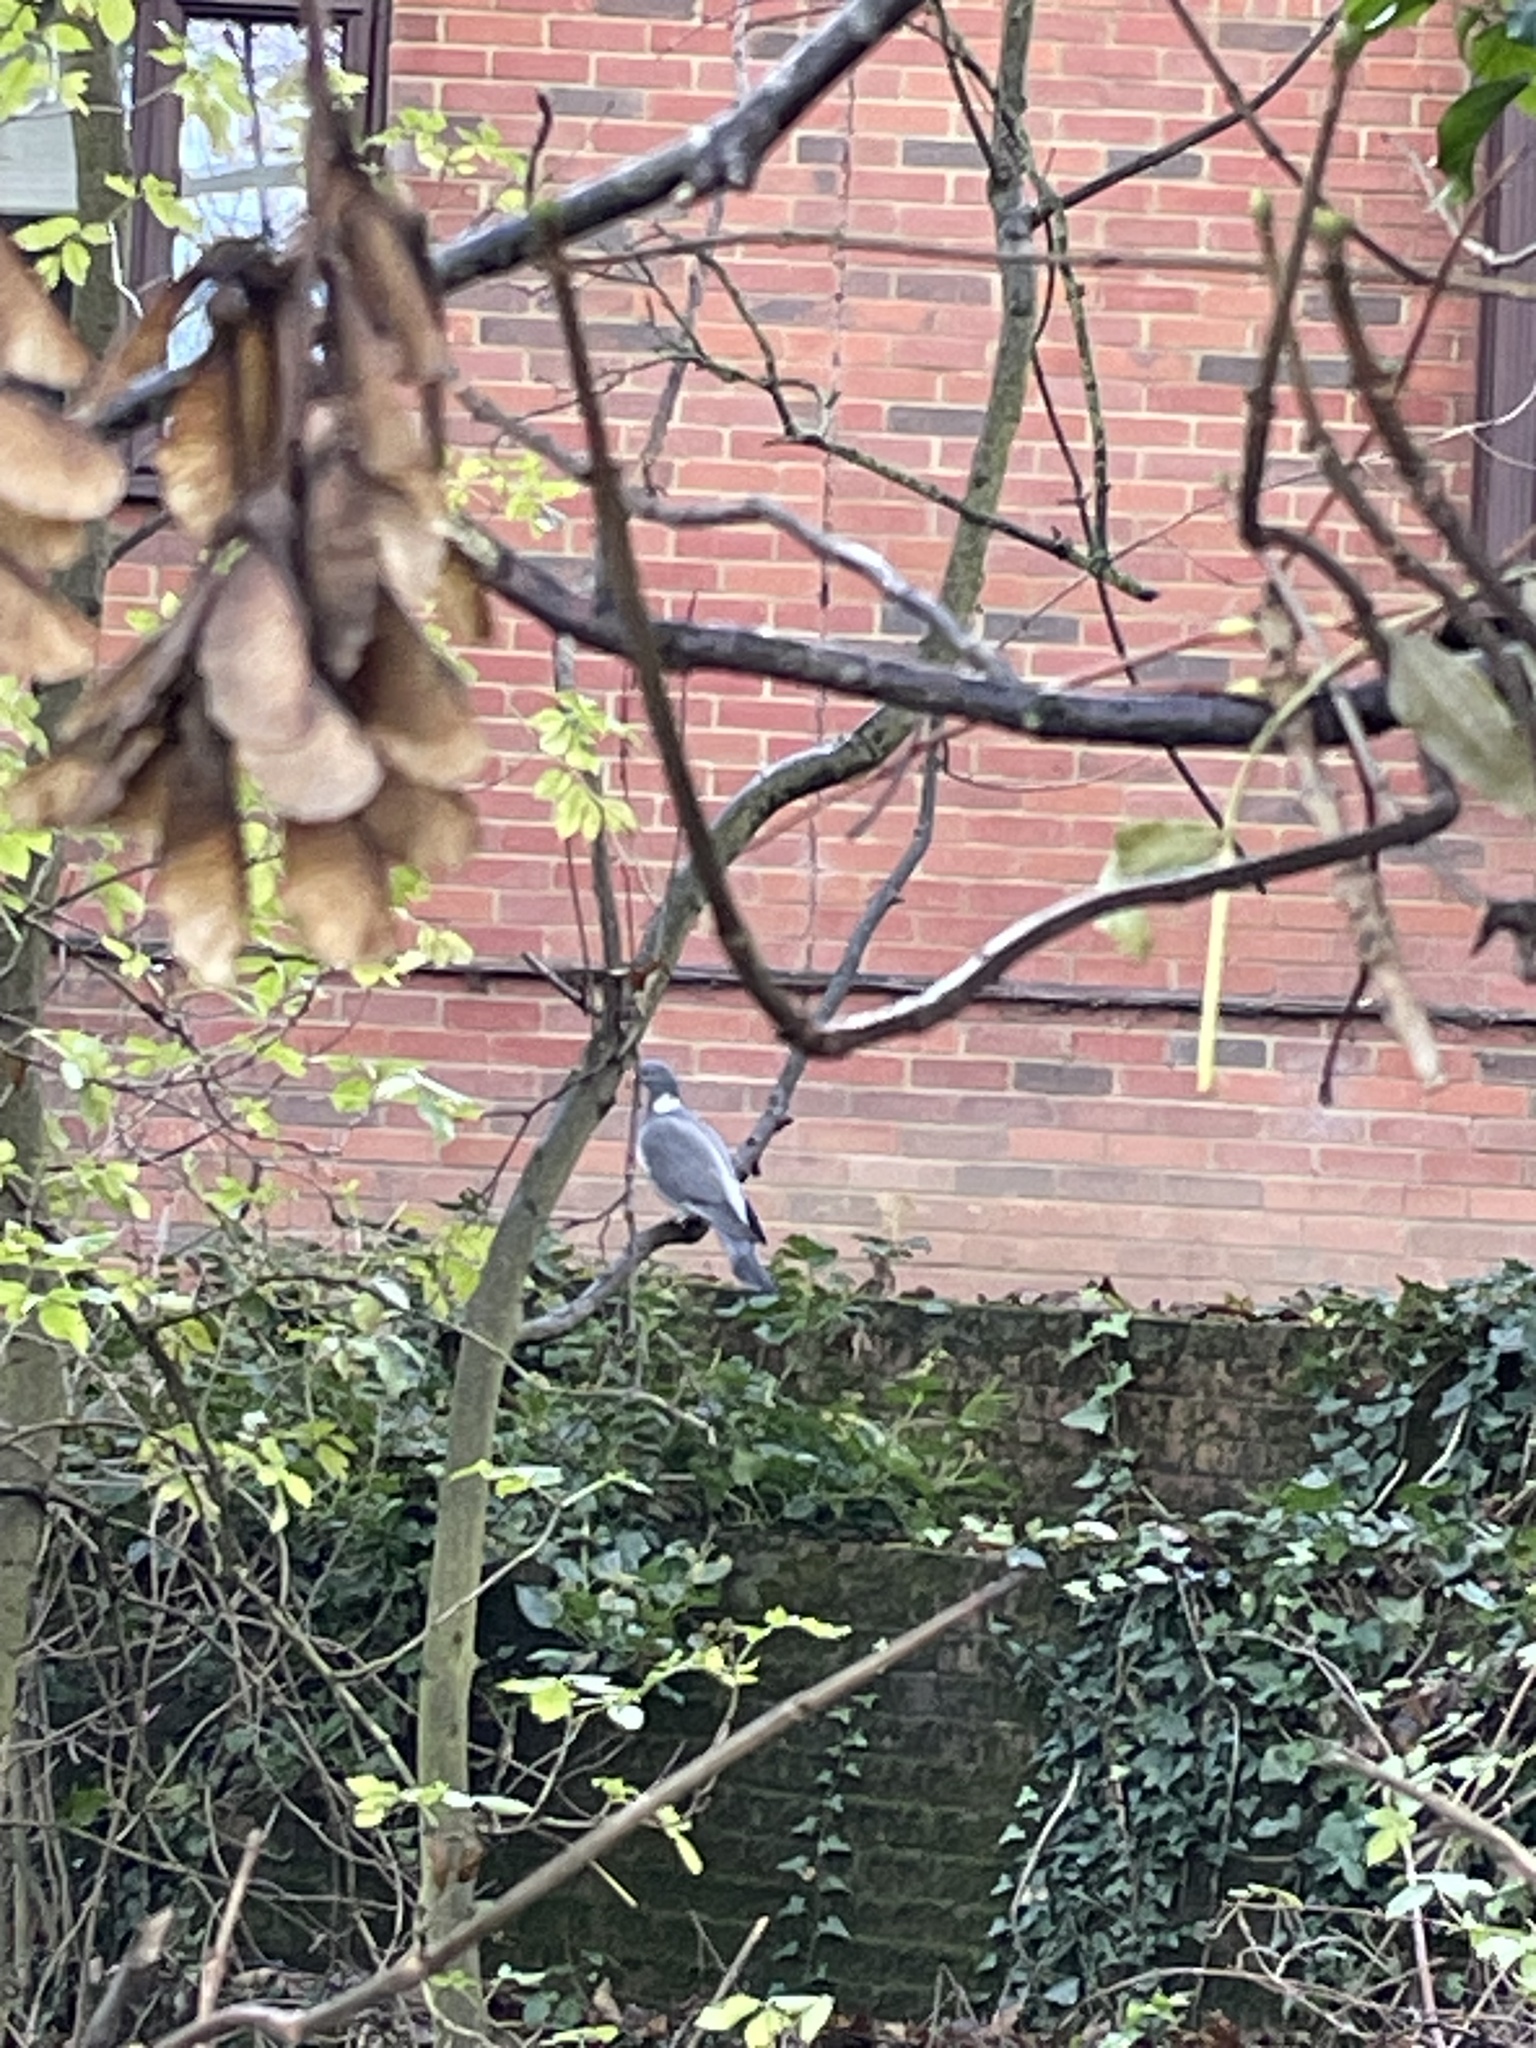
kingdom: Animalia
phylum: Chordata
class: Aves
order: Columbiformes
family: Columbidae
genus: Columba
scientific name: Columba palumbus
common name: Common wood pigeon
